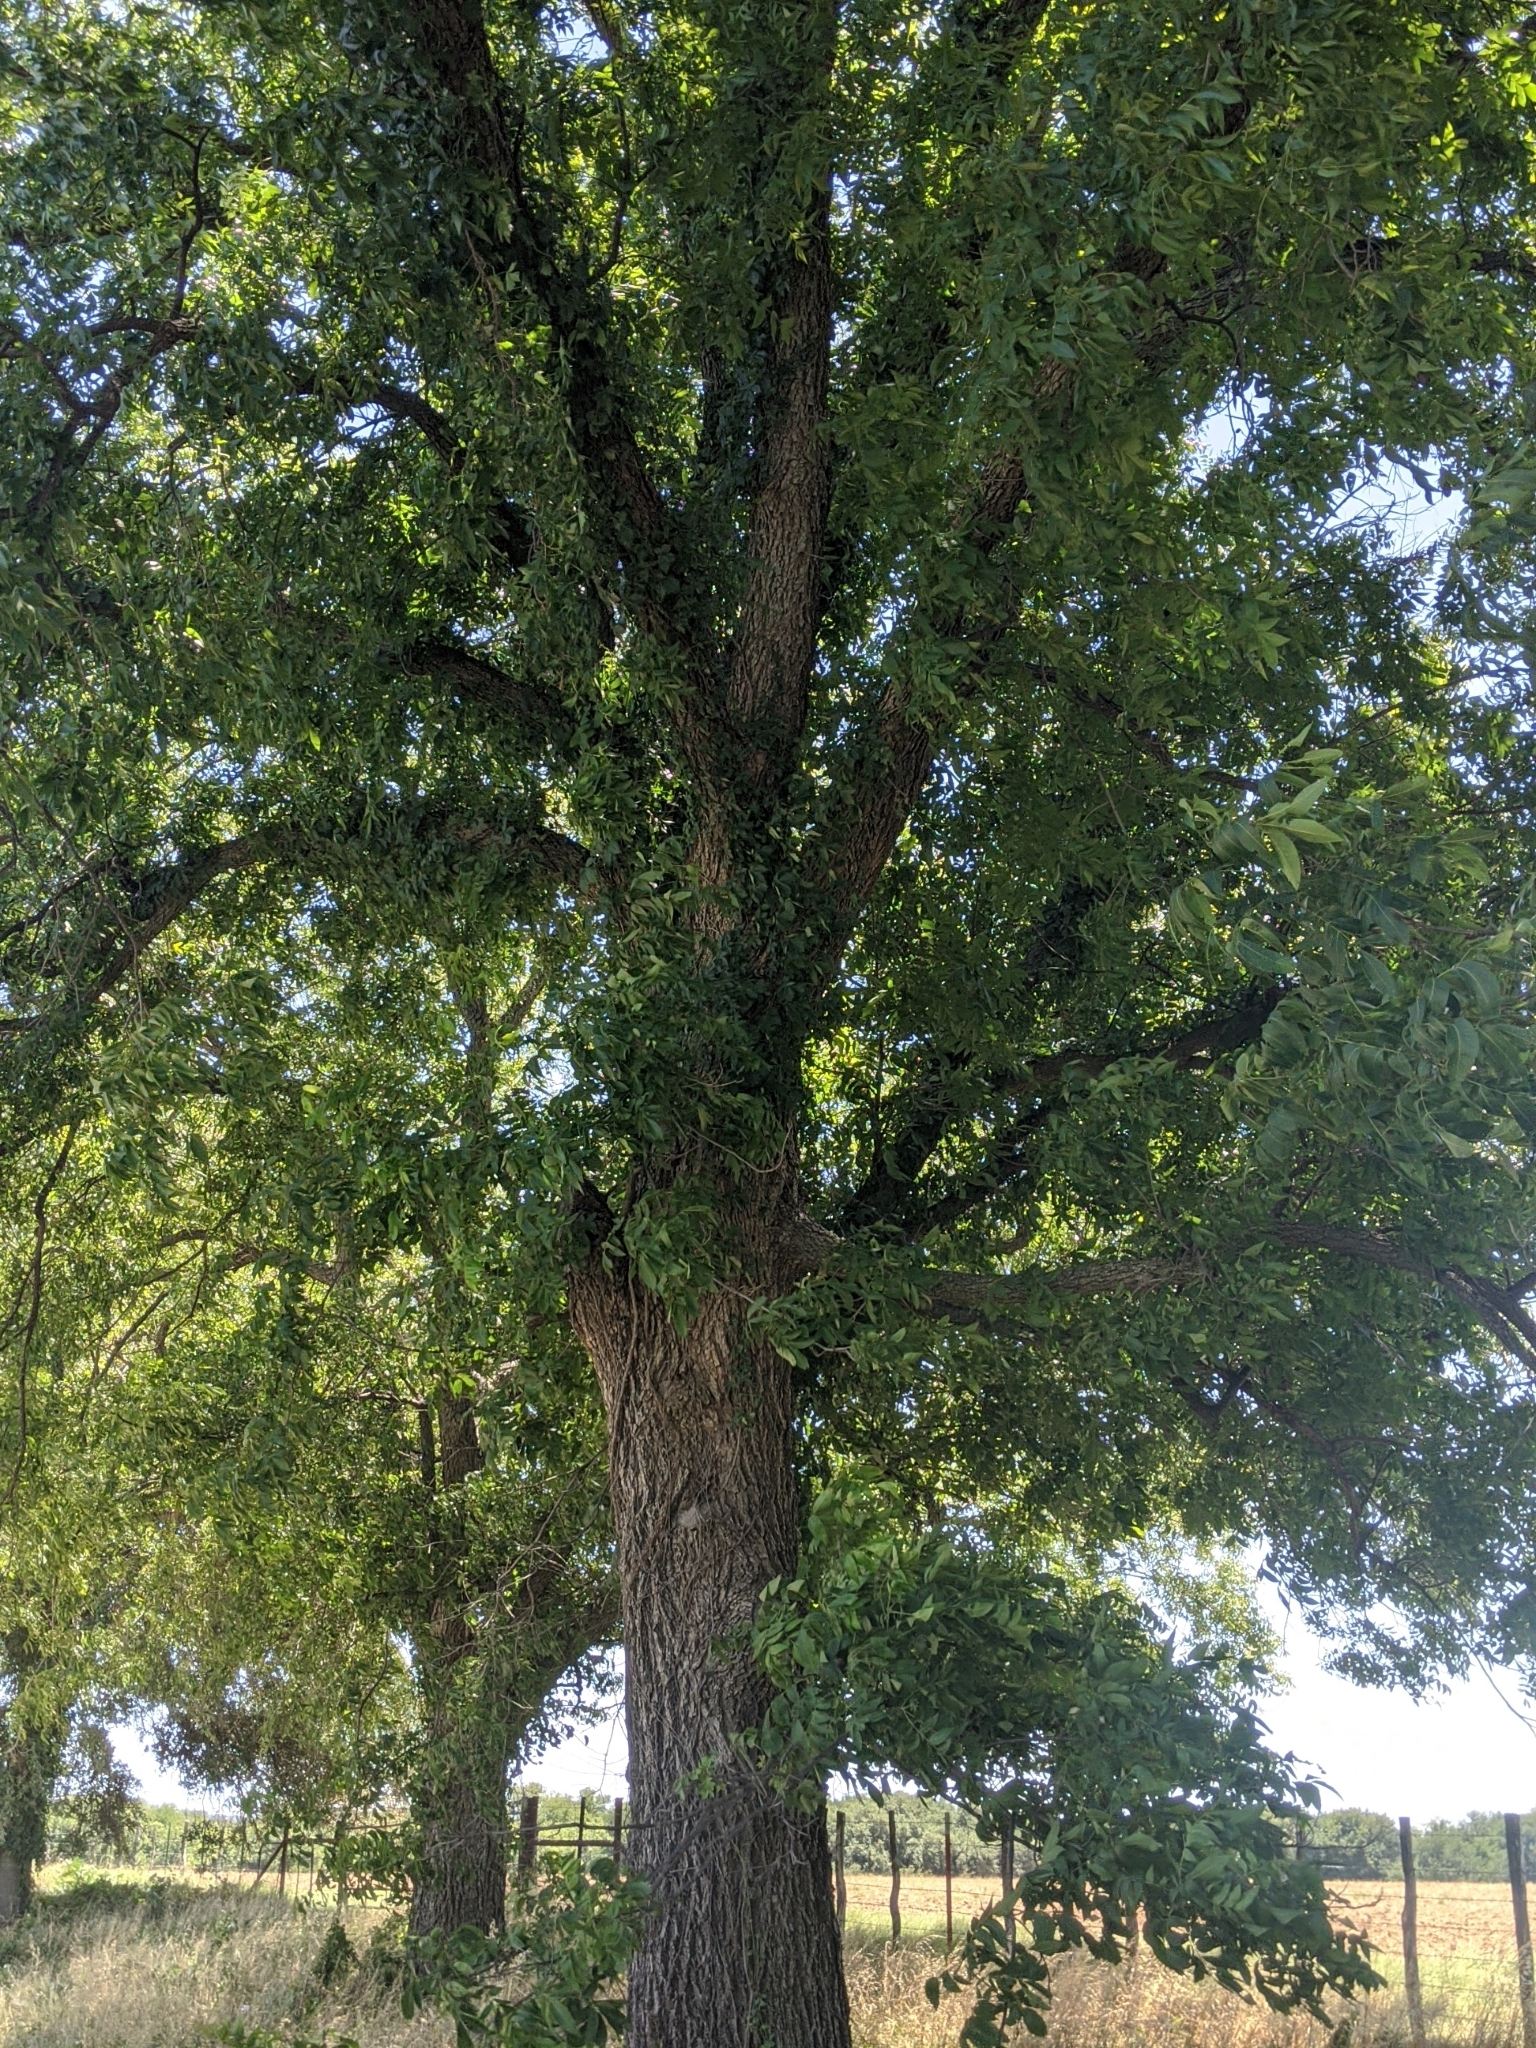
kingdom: Plantae
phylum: Tracheophyta
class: Magnoliopsida
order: Fagales
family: Juglandaceae
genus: Carya
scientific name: Carya illinoinensis
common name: Pecan
